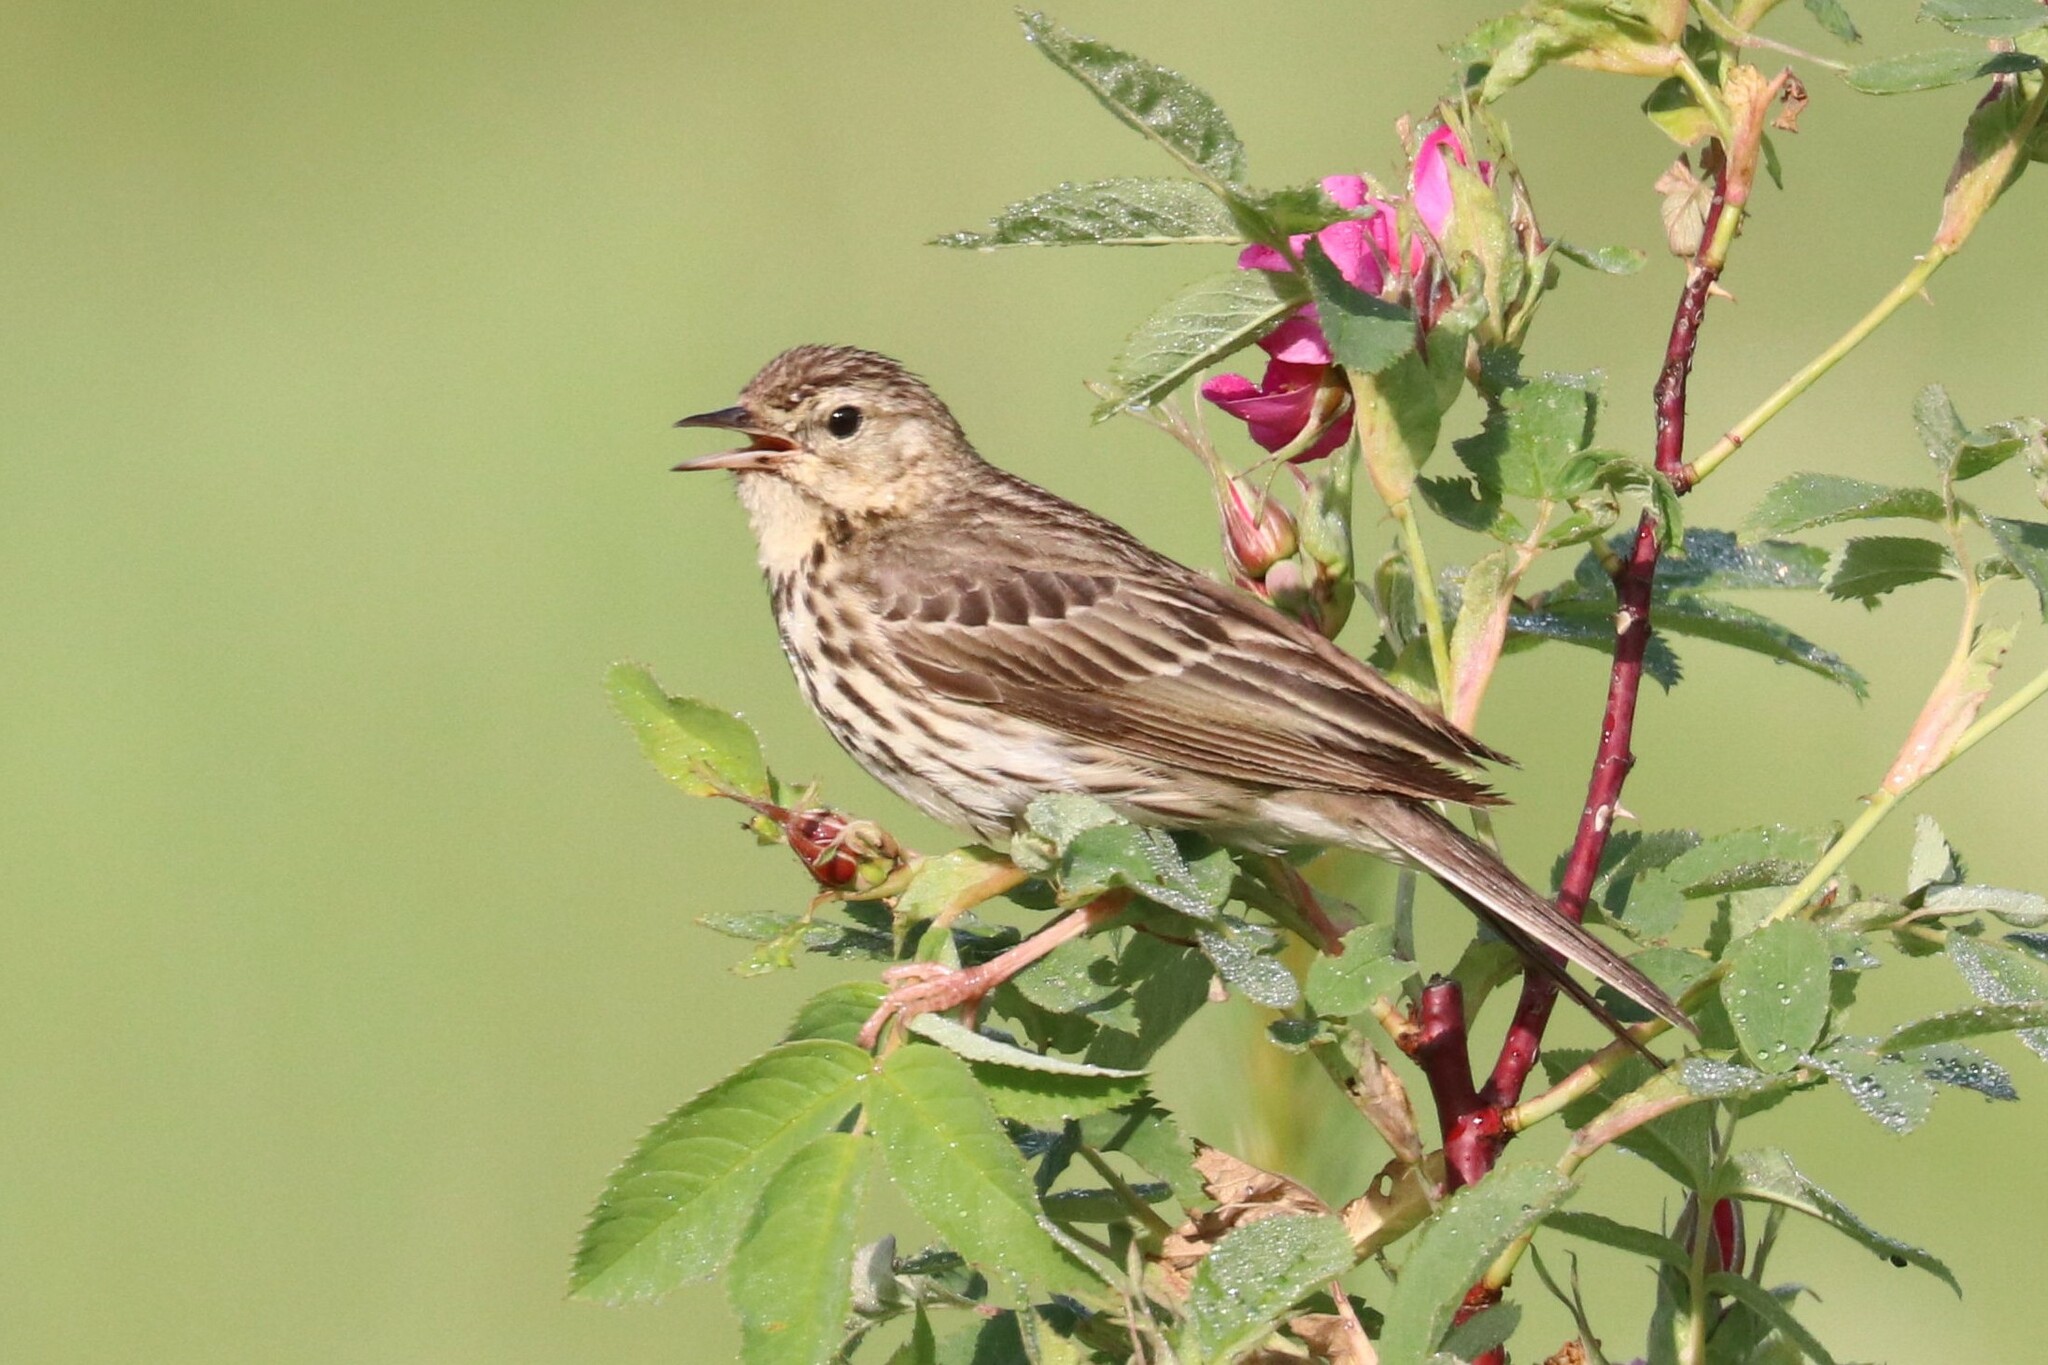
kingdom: Animalia
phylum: Chordata
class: Aves
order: Passeriformes
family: Motacillidae
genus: Anthus
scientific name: Anthus trivialis
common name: Tree pipit
